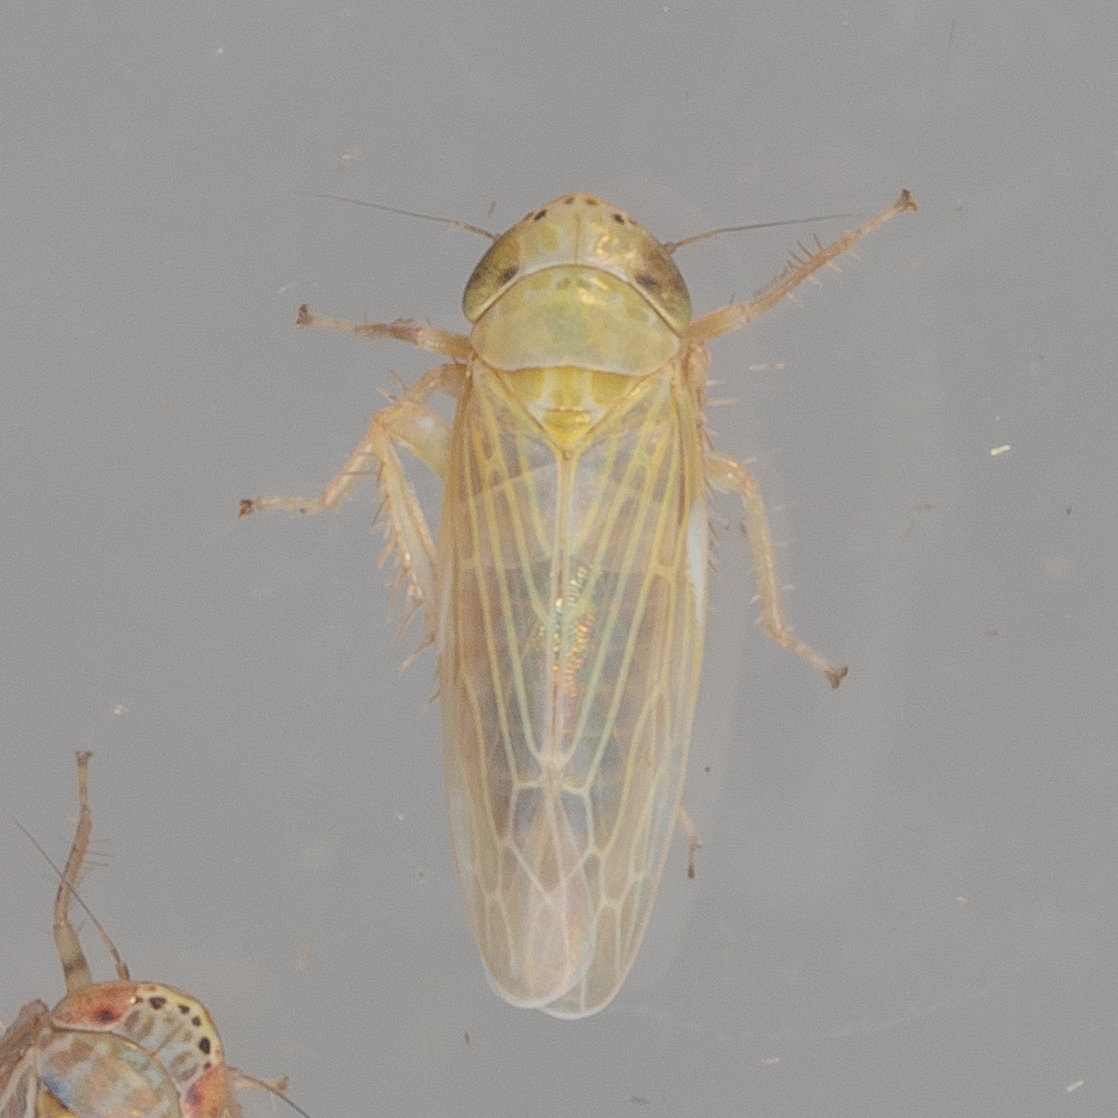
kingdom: Animalia
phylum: Arthropoda
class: Insecta
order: Hemiptera
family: Cicadellidae
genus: Graminella
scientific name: Graminella nigrifrons
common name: Blackfaced leafhopper
